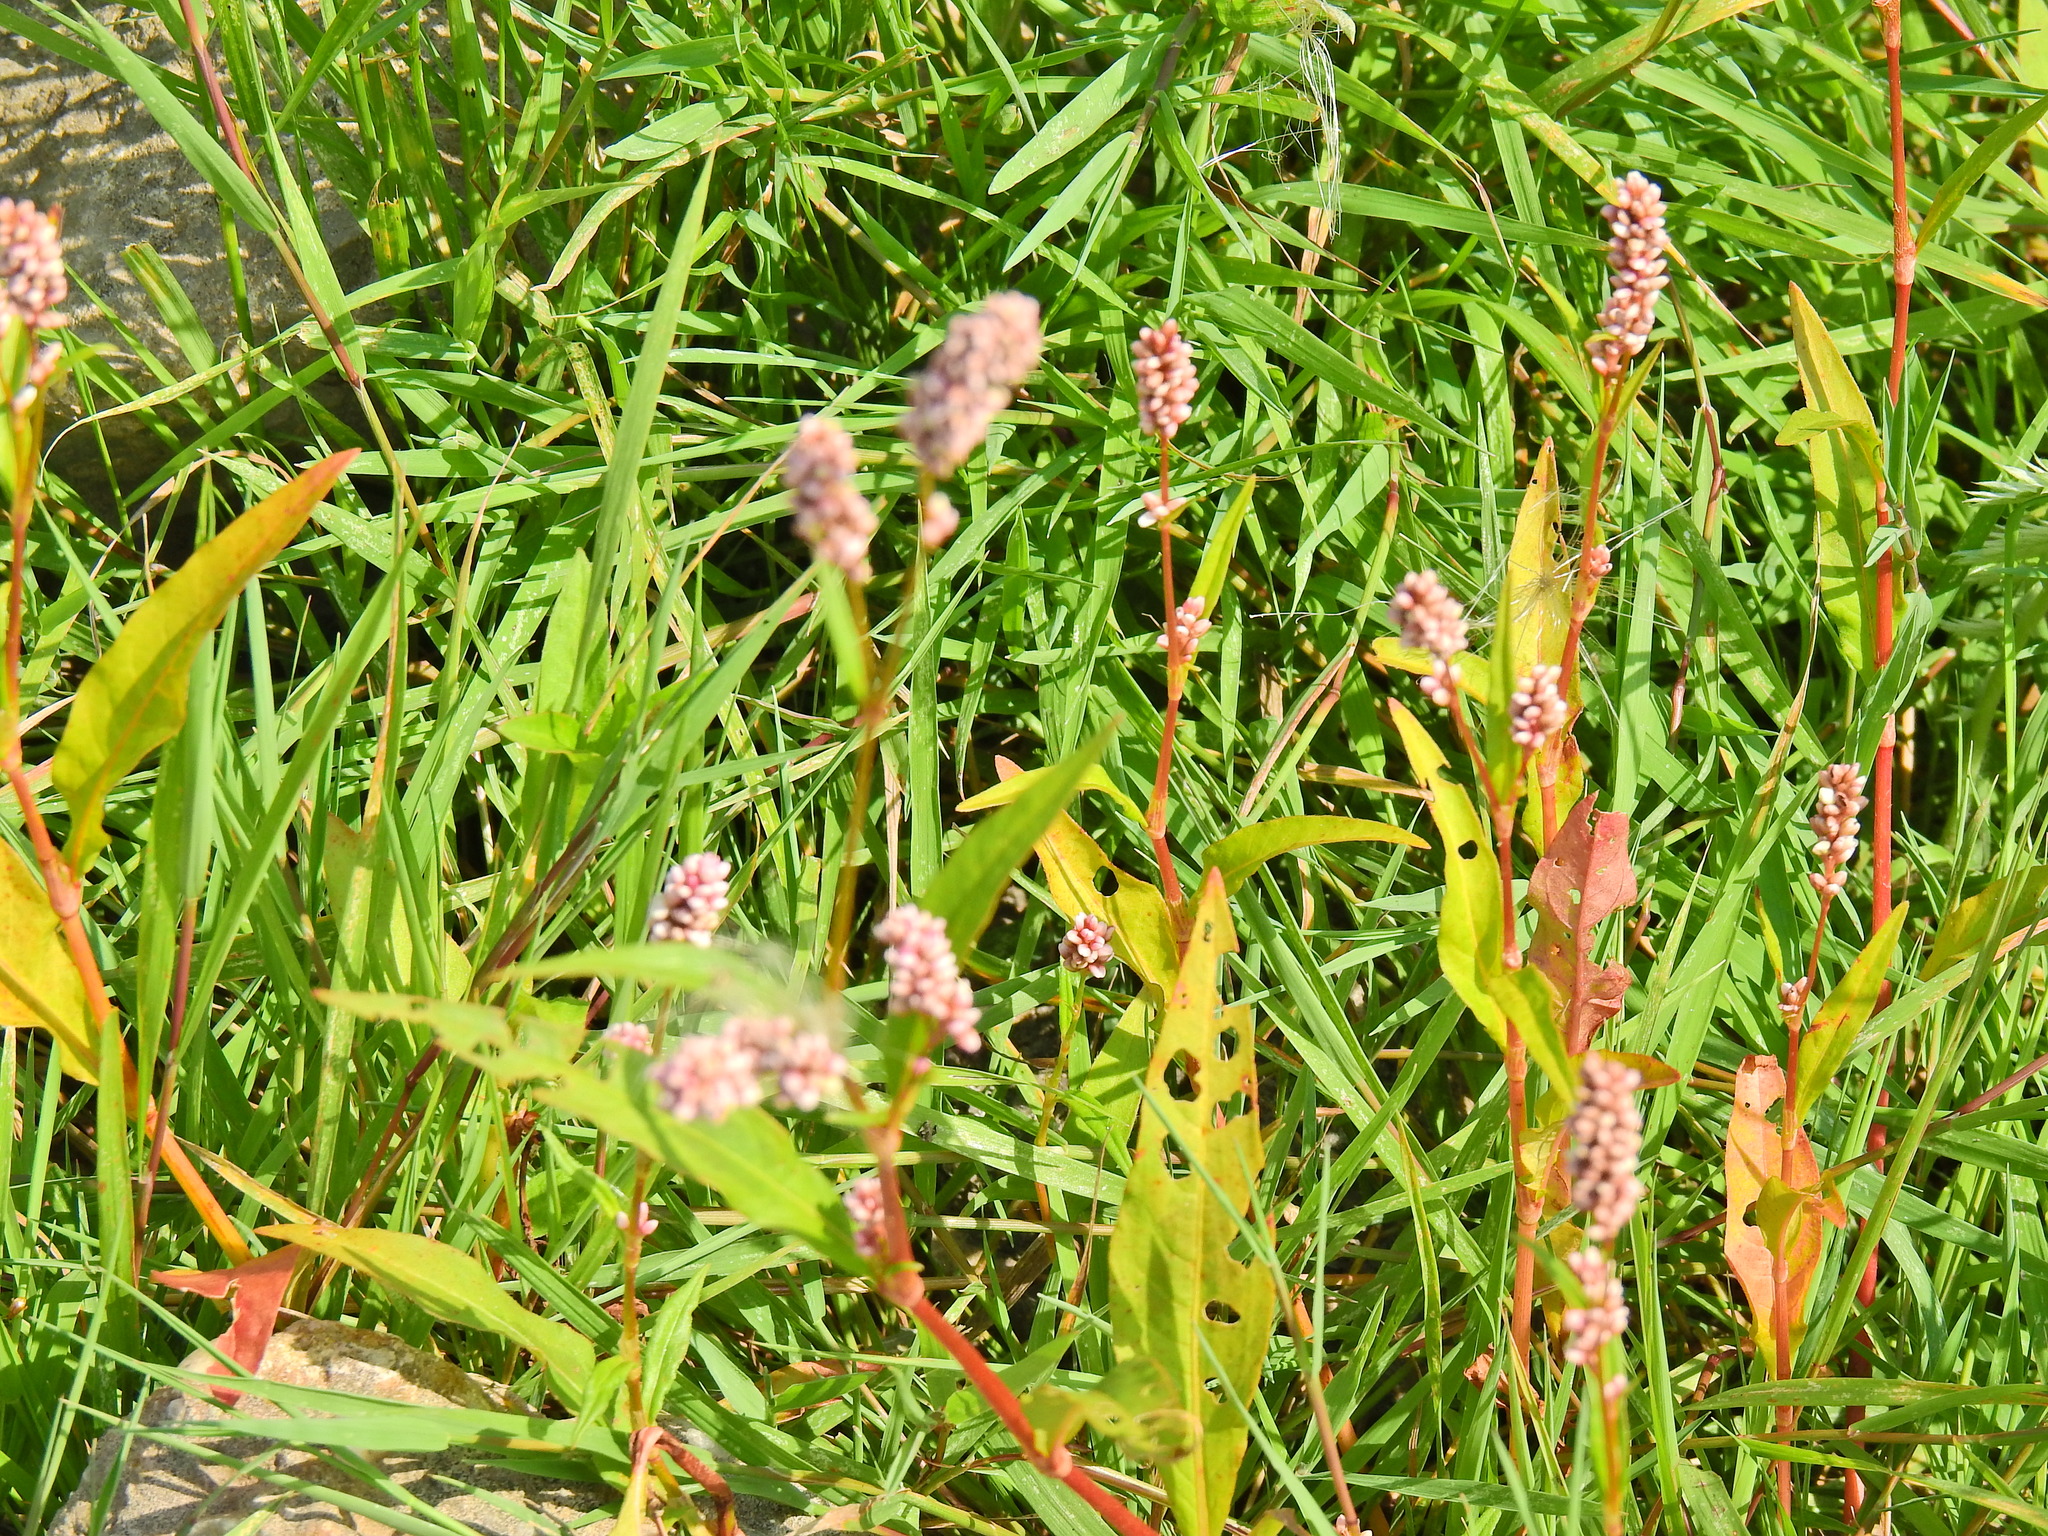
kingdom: Plantae
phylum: Tracheophyta
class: Magnoliopsida
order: Caryophyllales
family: Polygonaceae
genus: Persicaria
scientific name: Persicaria maculosa
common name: Redshank
